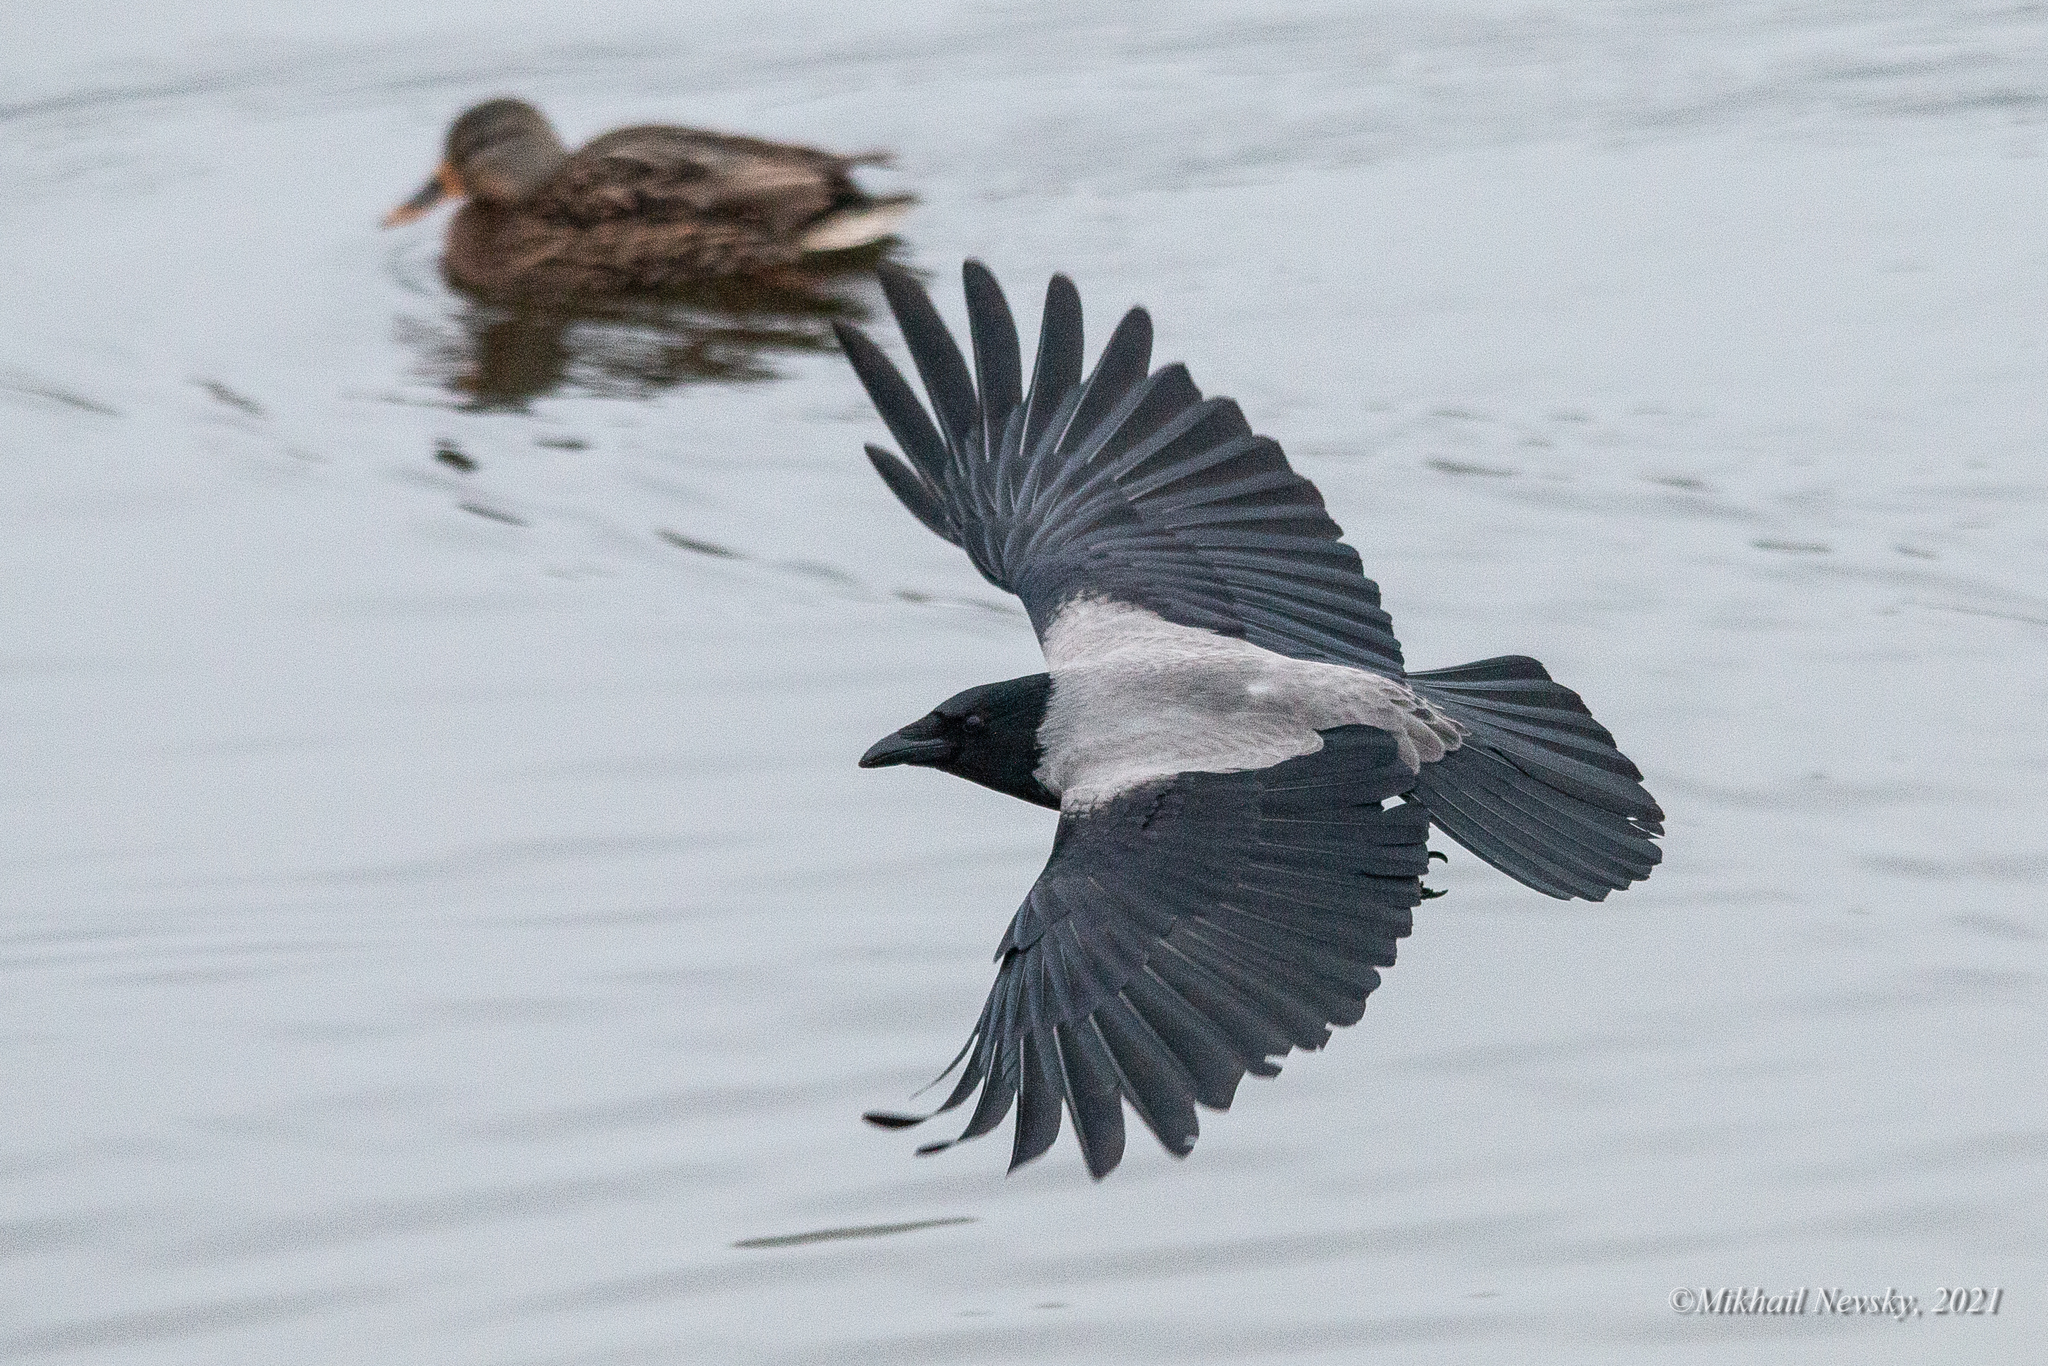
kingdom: Animalia
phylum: Chordata
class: Aves
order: Passeriformes
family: Corvidae
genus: Corvus
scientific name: Corvus cornix
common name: Hooded crow
